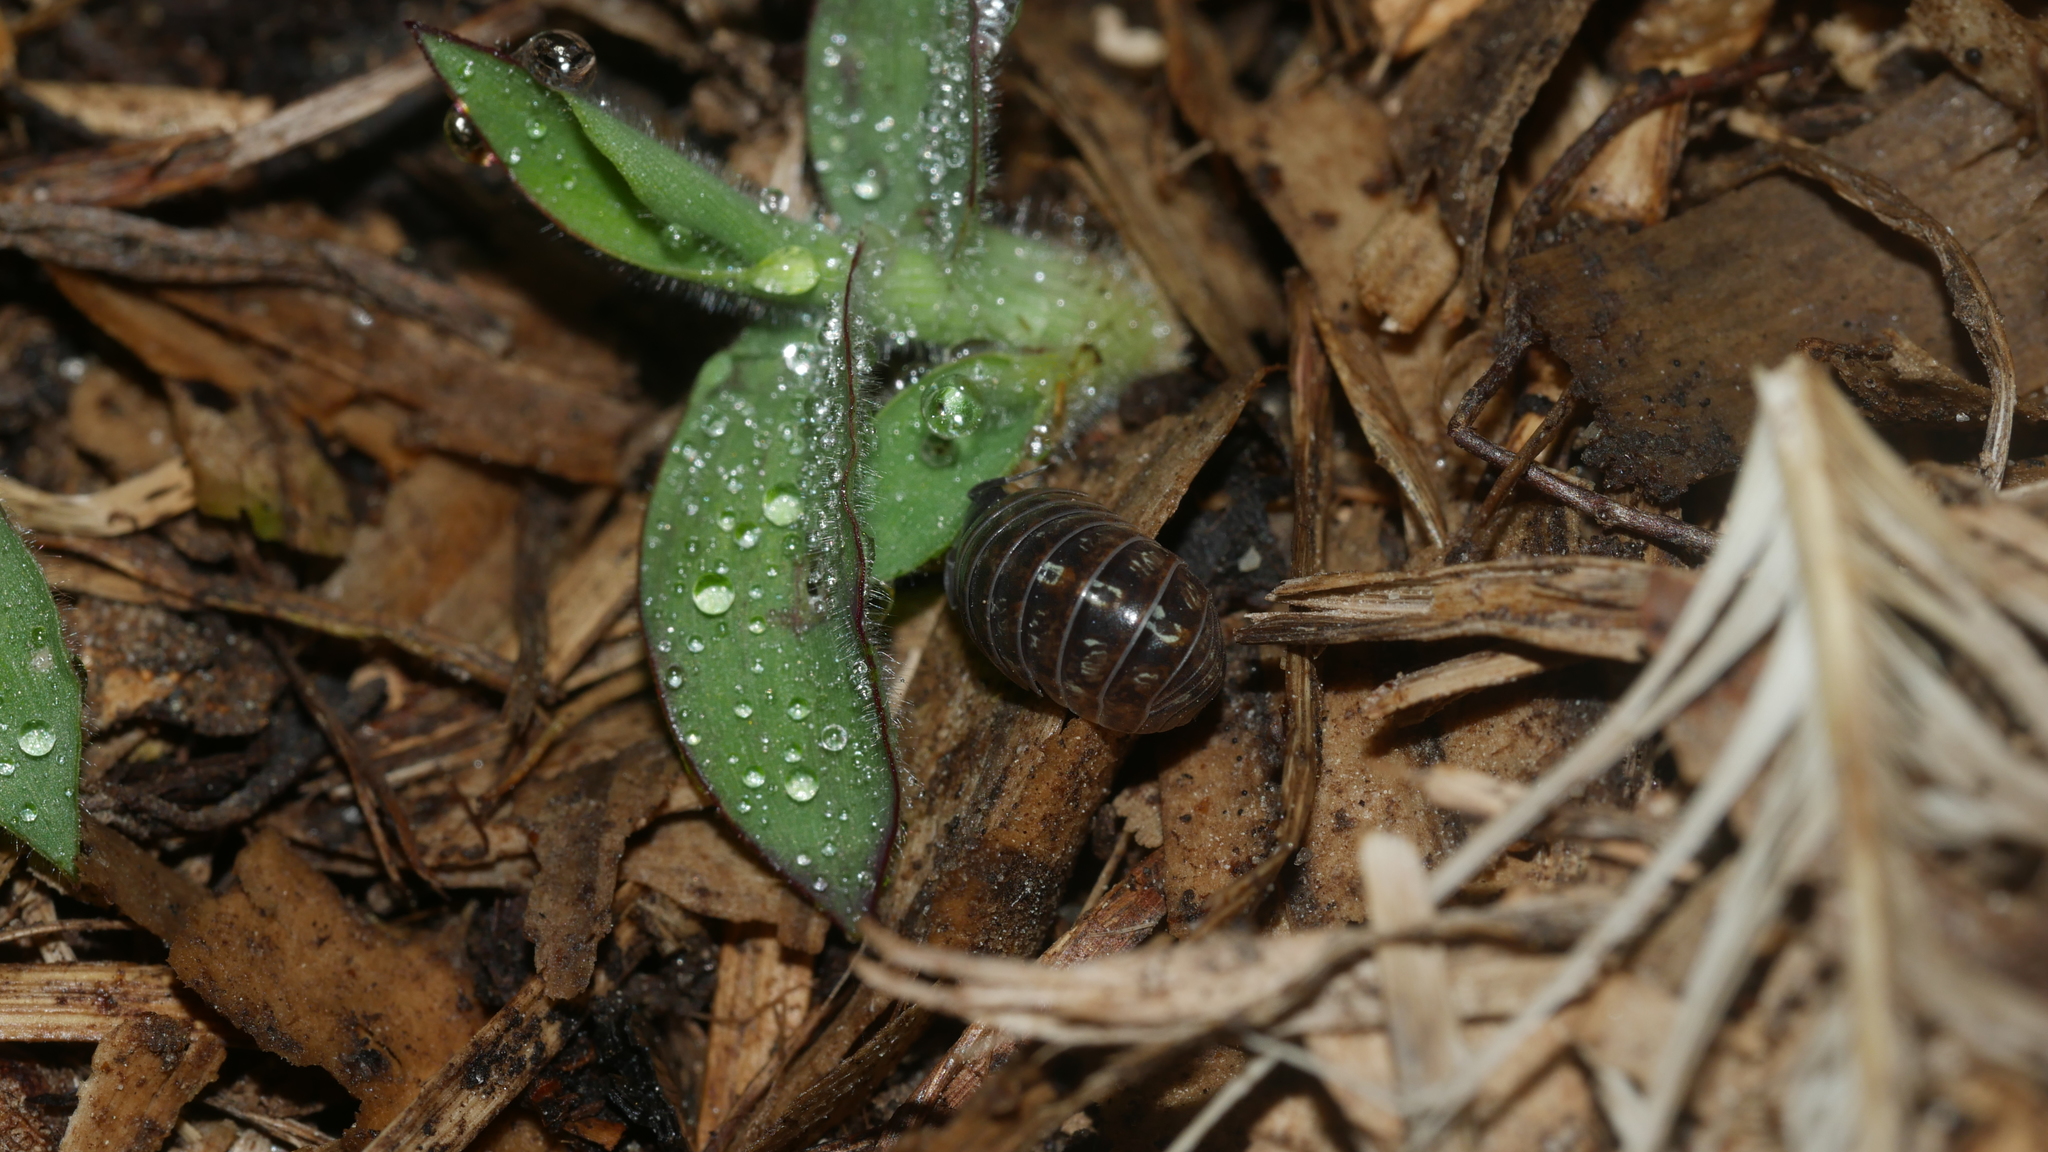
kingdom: Animalia
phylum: Arthropoda
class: Malacostraca
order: Isopoda
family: Armadillidiidae
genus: Armadillidium
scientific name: Armadillidium vulgare
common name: Common pill woodlouse
